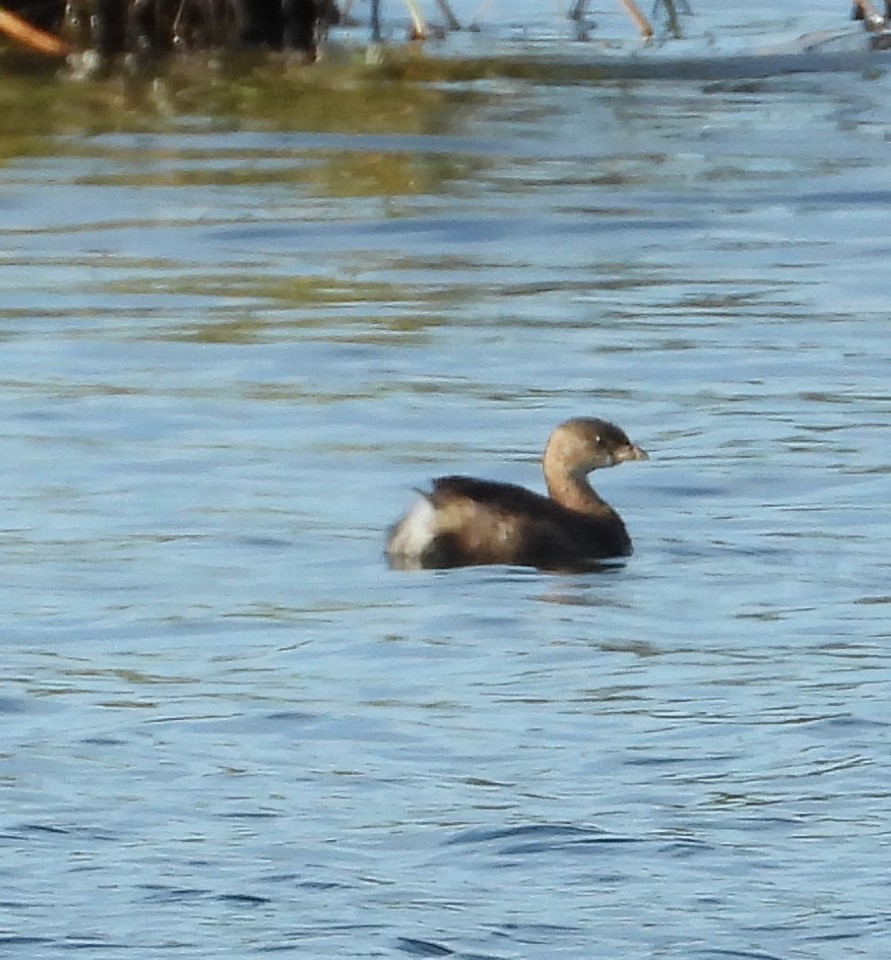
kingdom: Animalia
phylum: Chordata
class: Aves
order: Podicipediformes
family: Podicipedidae
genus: Podilymbus
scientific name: Podilymbus podiceps
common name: Pied-billed grebe
